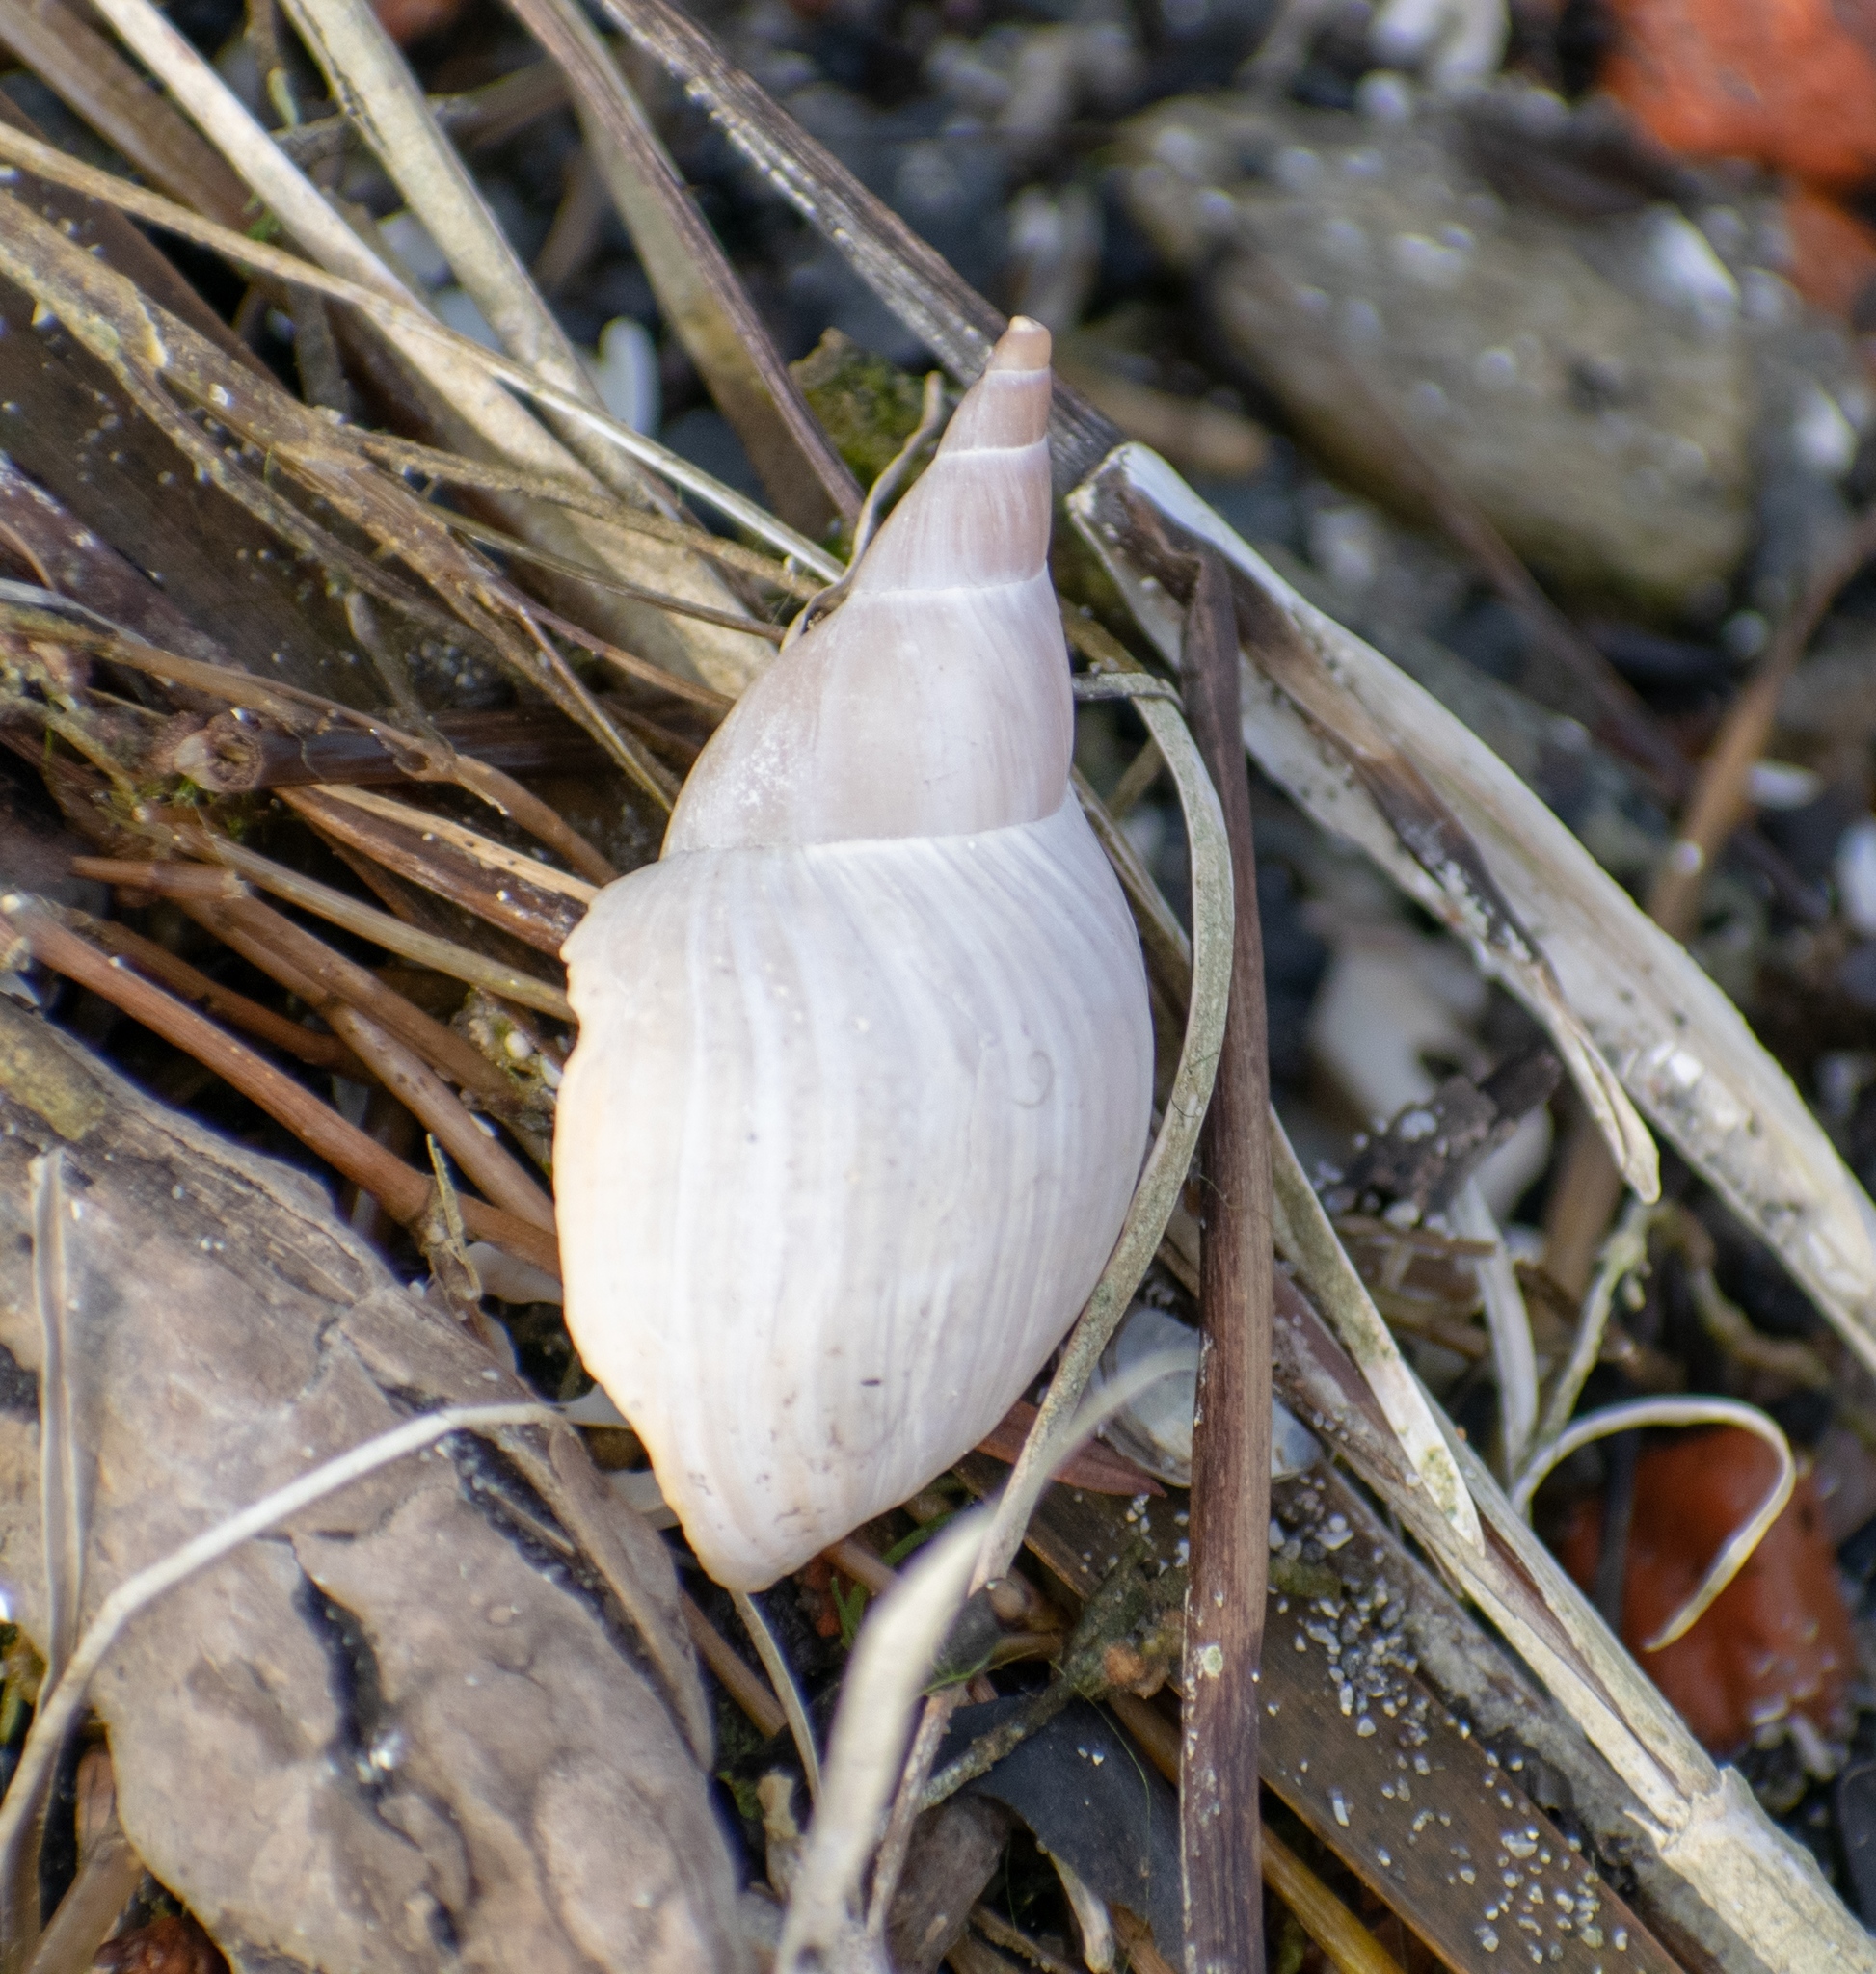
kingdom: Animalia
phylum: Mollusca
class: Gastropoda
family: Lymnaeidae
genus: Lymnaea
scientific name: Lymnaea stagnalis
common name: Great pond snail
